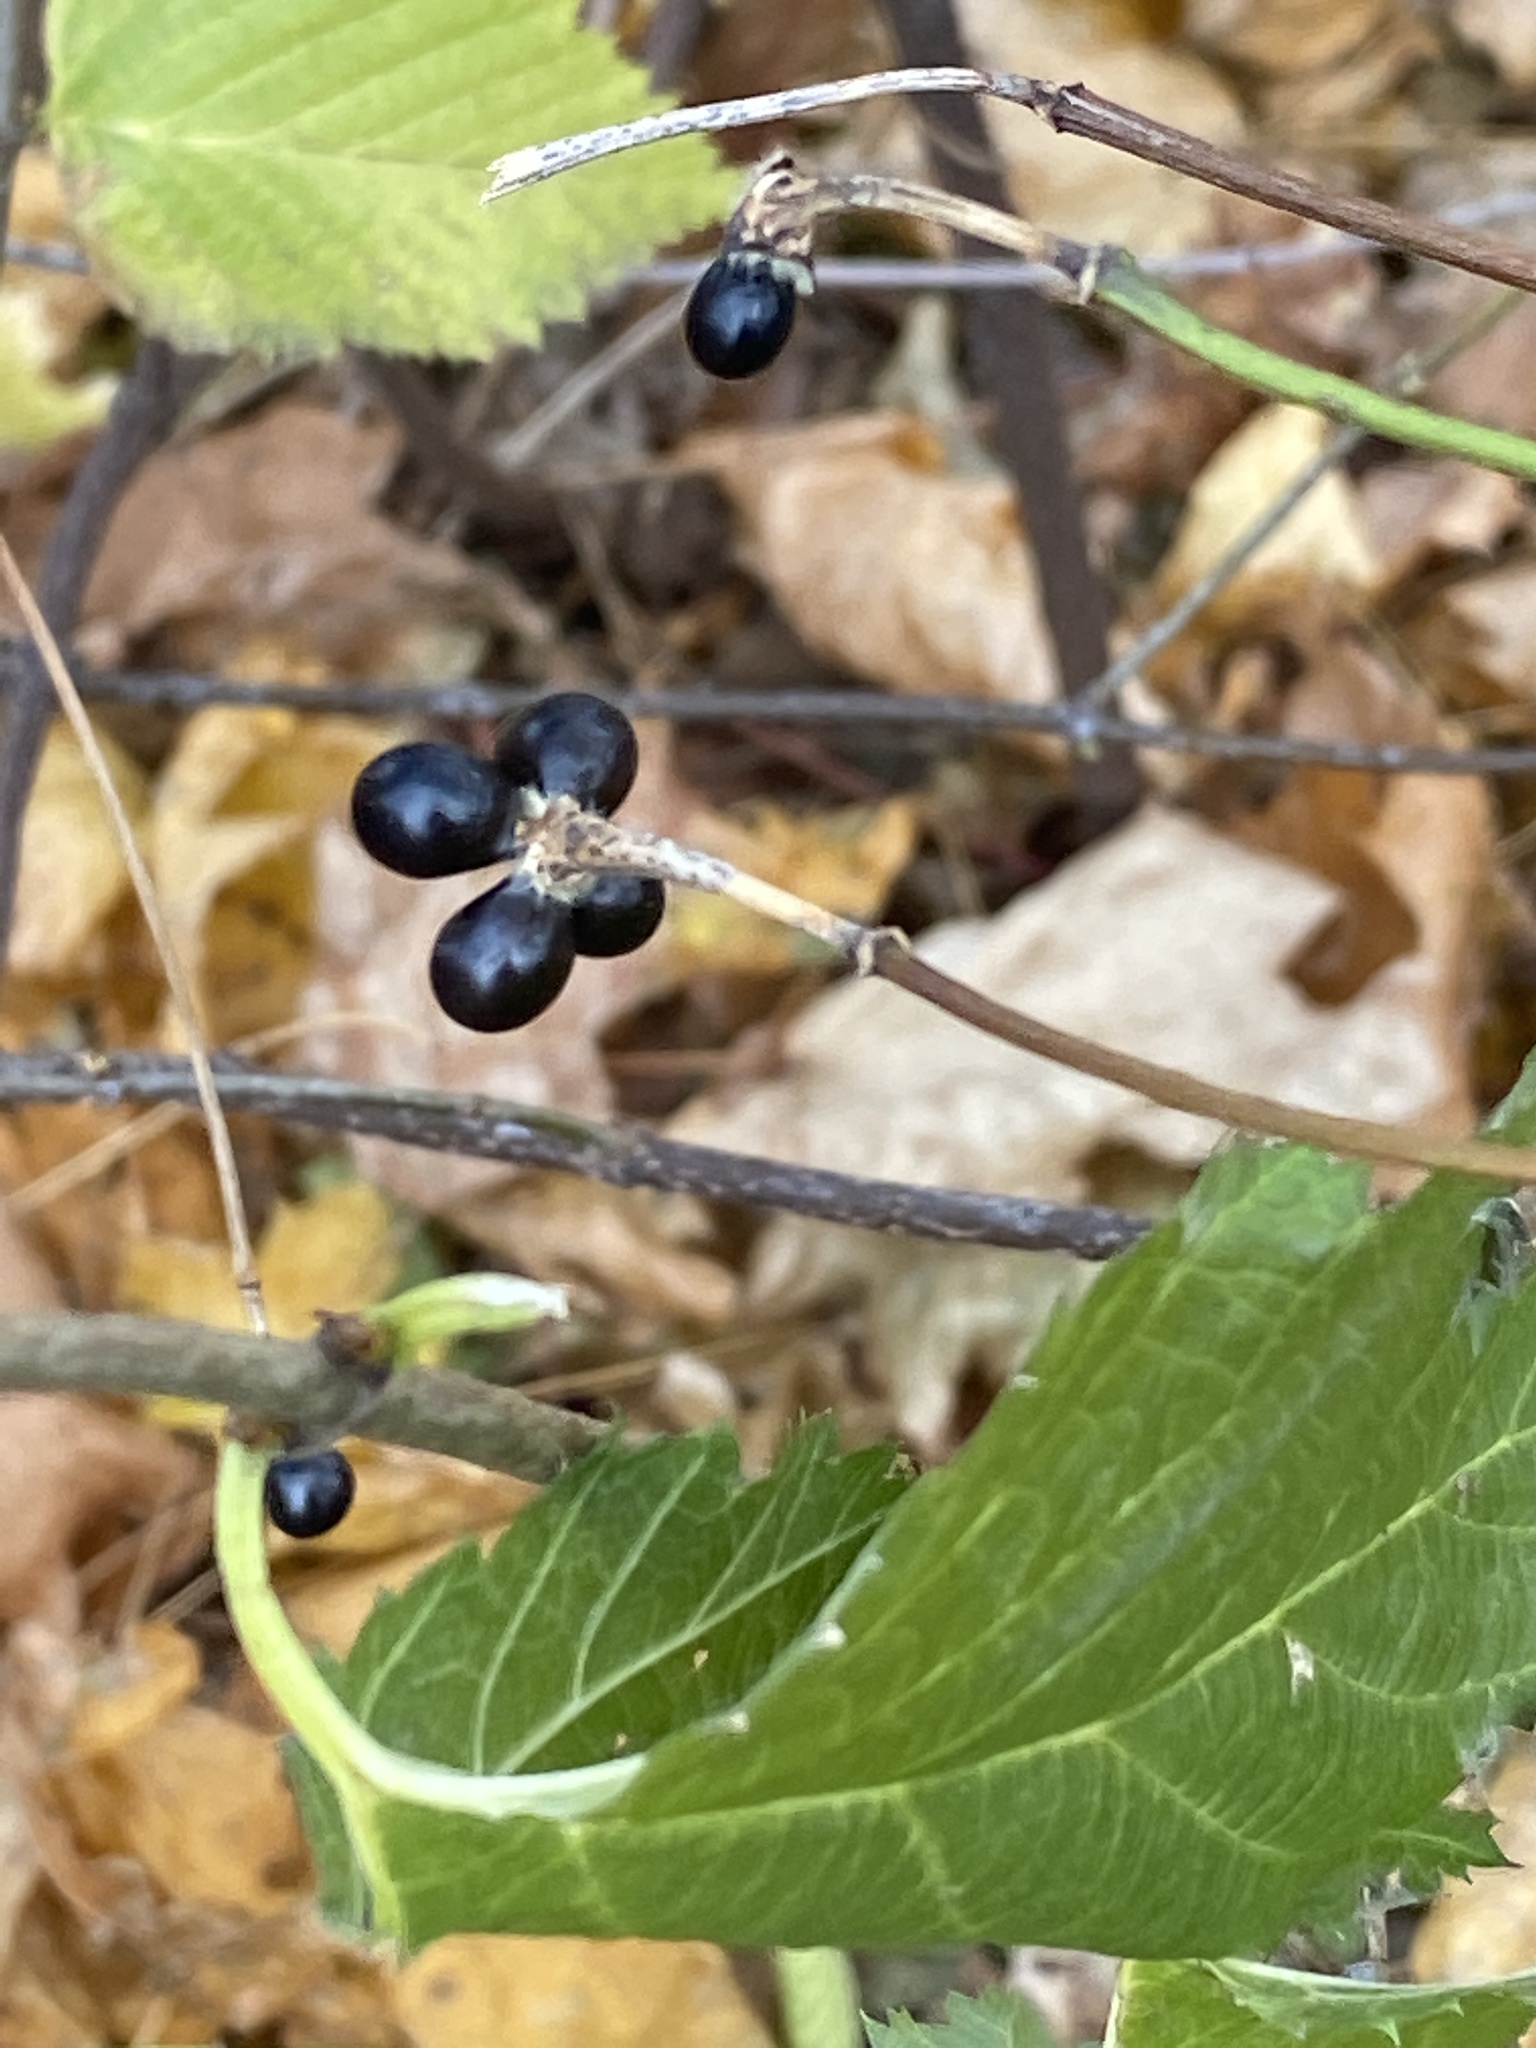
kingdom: Plantae
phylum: Tracheophyta
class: Magnoliopsida
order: Rosales
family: Rosaceae
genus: Rhodotypos
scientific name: Rhodotypos scandens
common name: Jetbead
